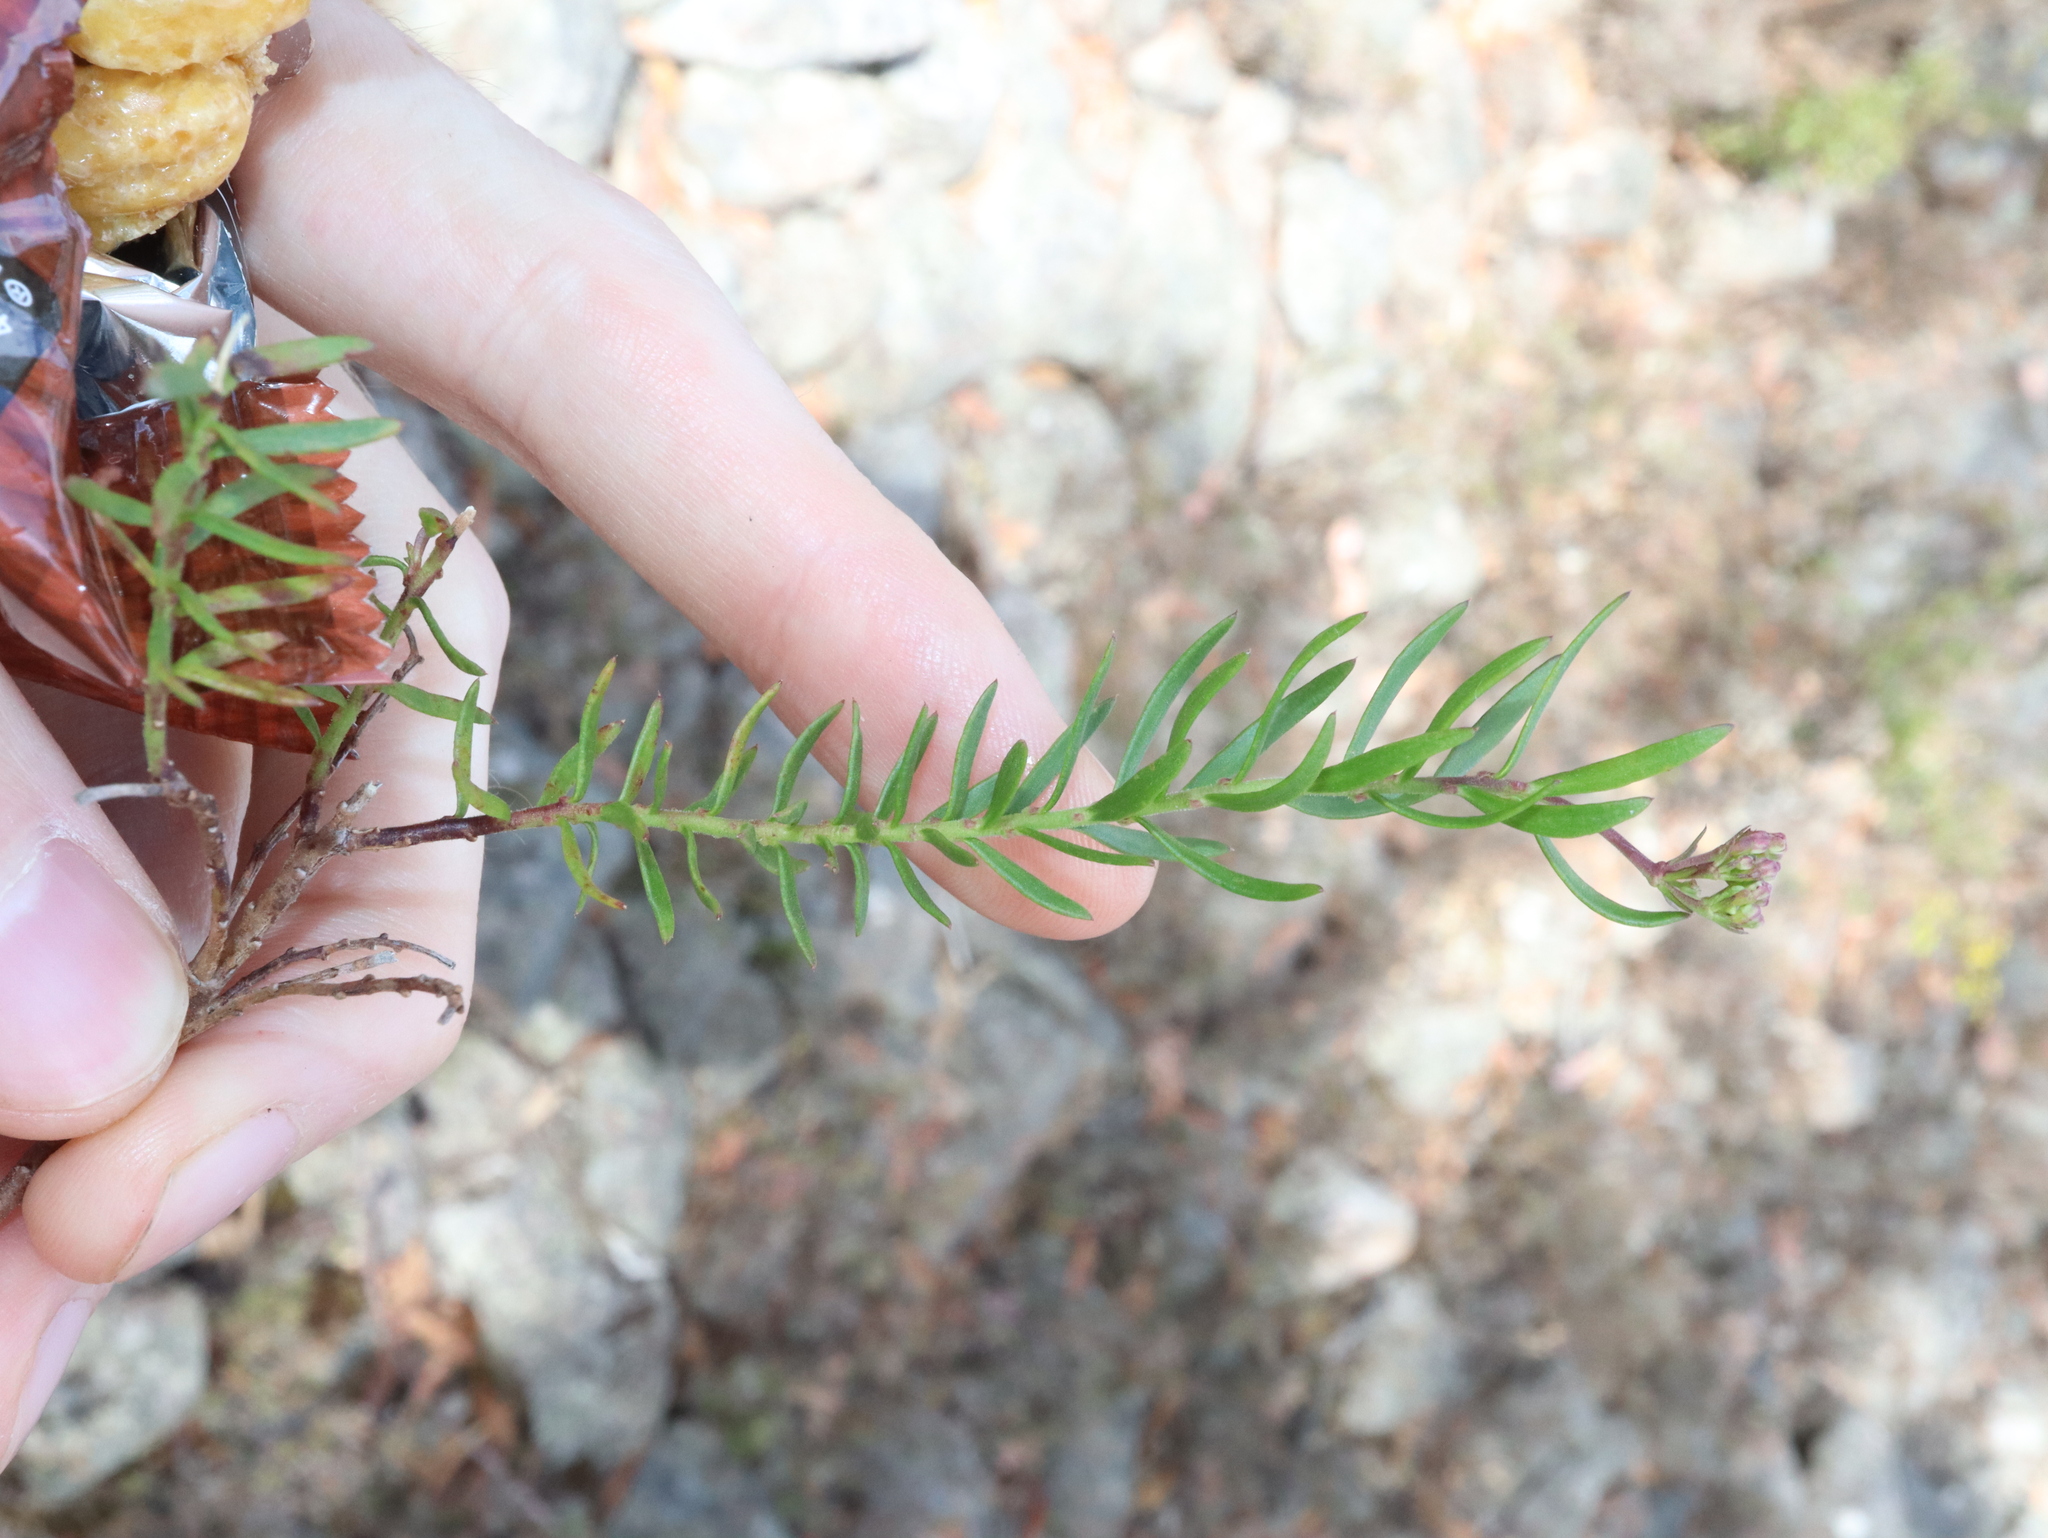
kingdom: Plantae
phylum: Tracheophyta
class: Magnoliopsida
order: Apiales
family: Apiaceae
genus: Platysace
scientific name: Platysace ericoides
